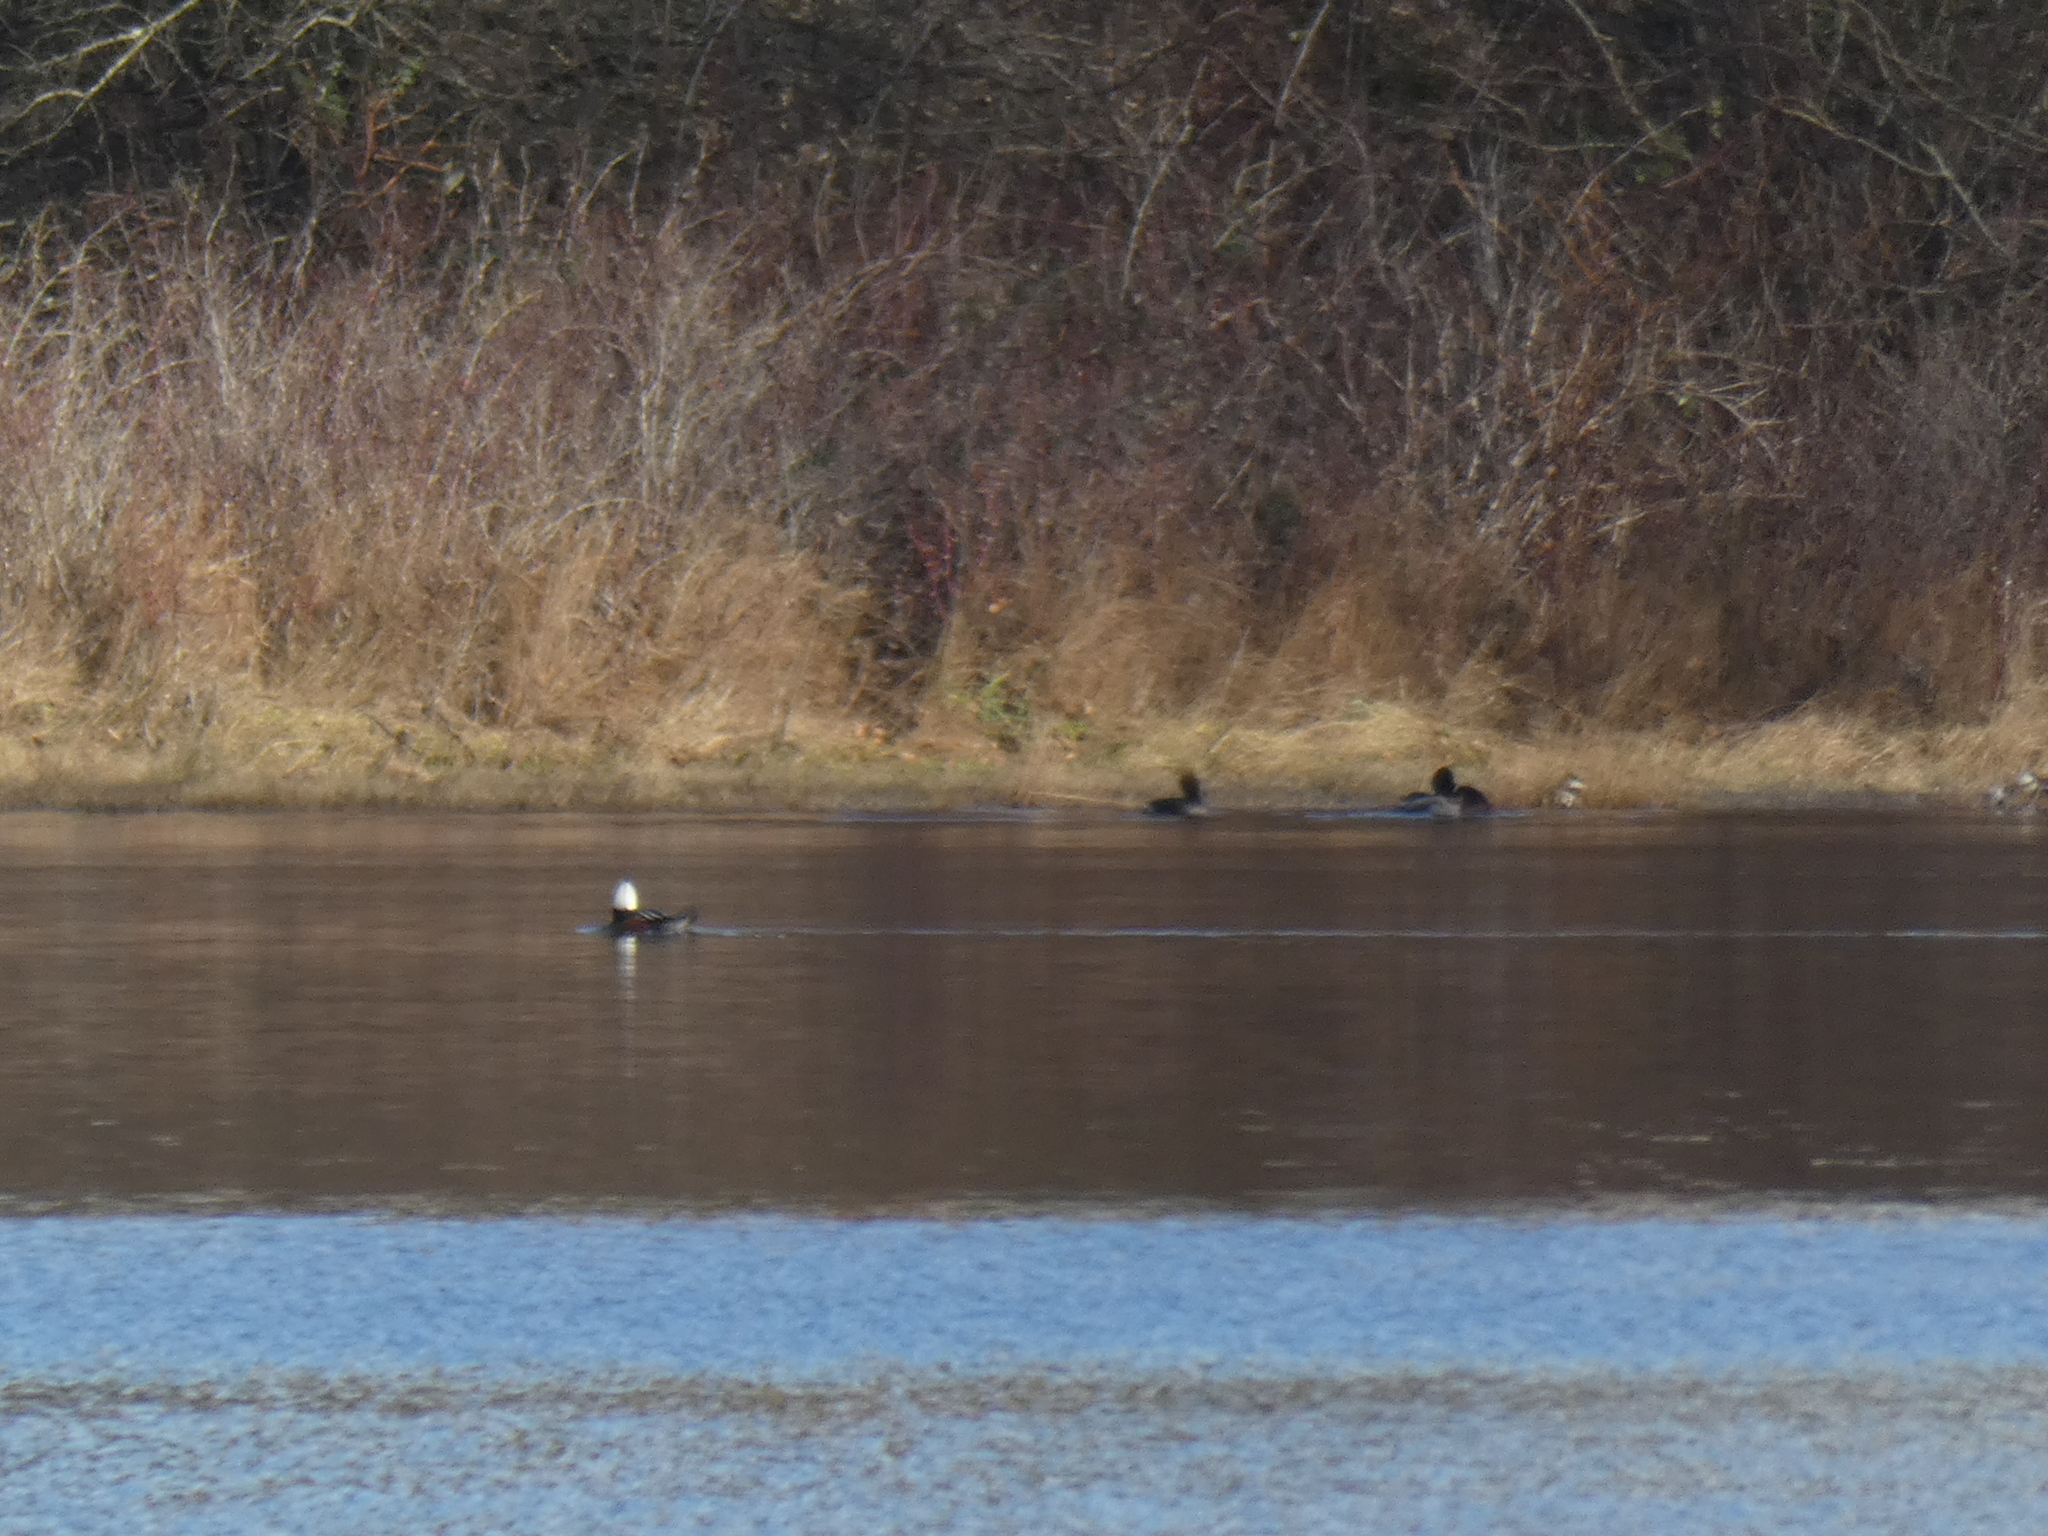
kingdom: Animalia
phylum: Chordata
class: Aves
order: Anseriformes
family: Anatidae
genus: Lophodytes
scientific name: Lophodytes cucullatus
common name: Hooded merganser
